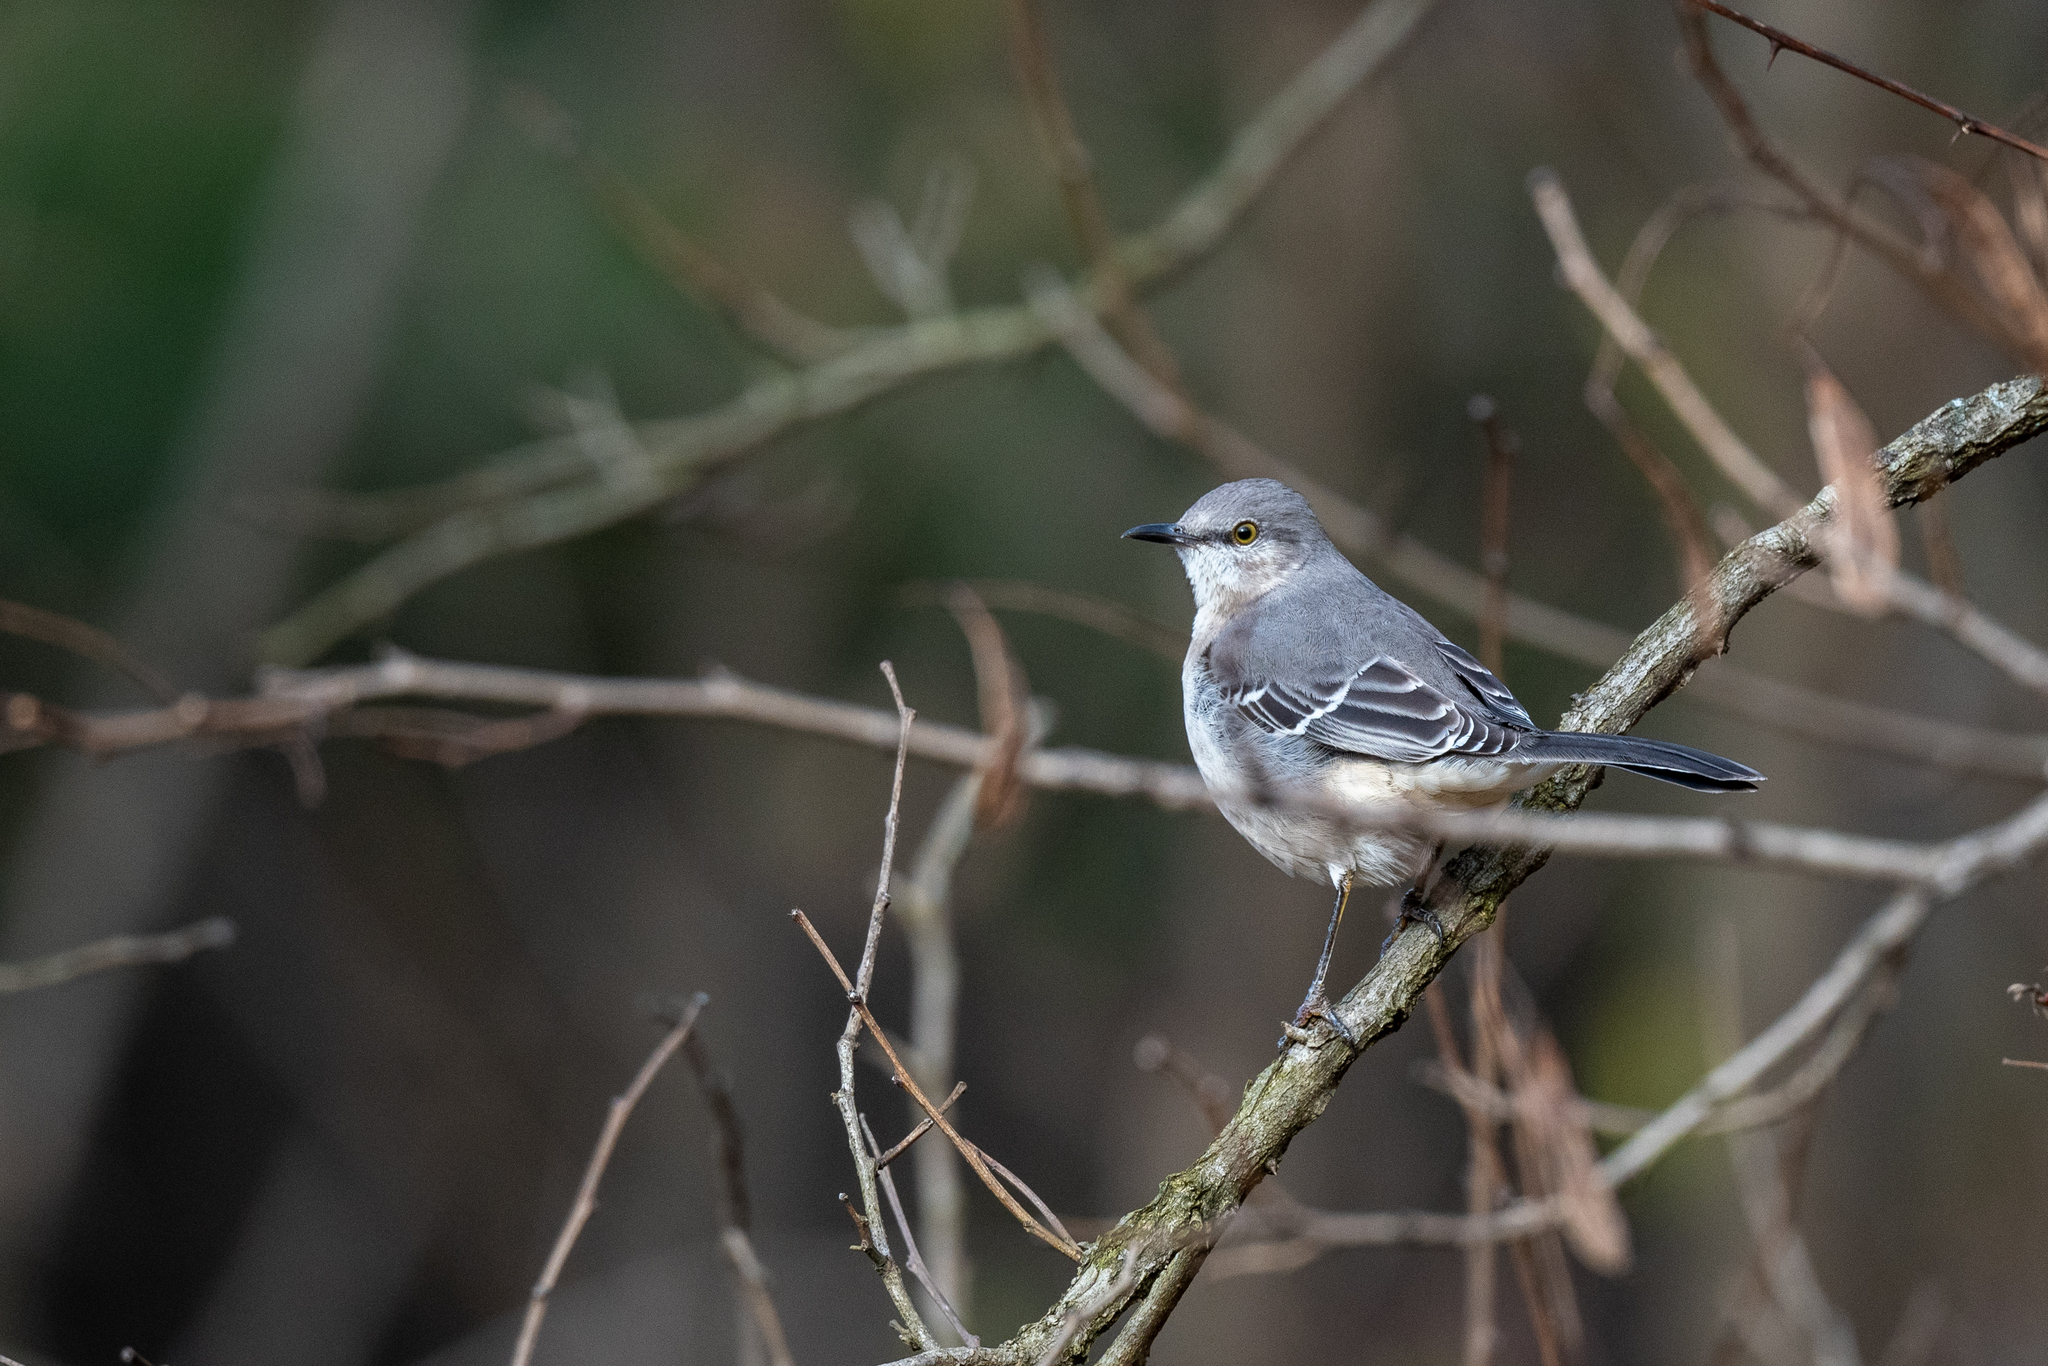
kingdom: Animalia
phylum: Chordata
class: Aves
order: Passeriformes
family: Mimidae
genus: Mimus
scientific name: Mimus polyglottos
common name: Northern mockingbird
